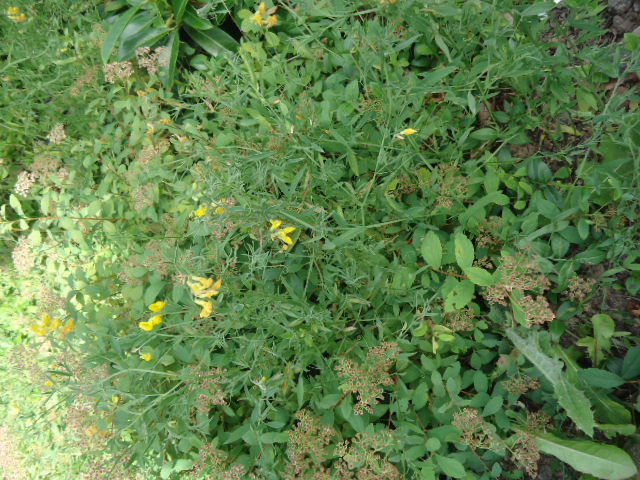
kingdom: Plantae
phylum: Tracheophyta
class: Magnoliopsida
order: Fabales
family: Fabaceae
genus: Lathyrus
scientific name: Lathyrus pratensis
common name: Meadow vetchling
